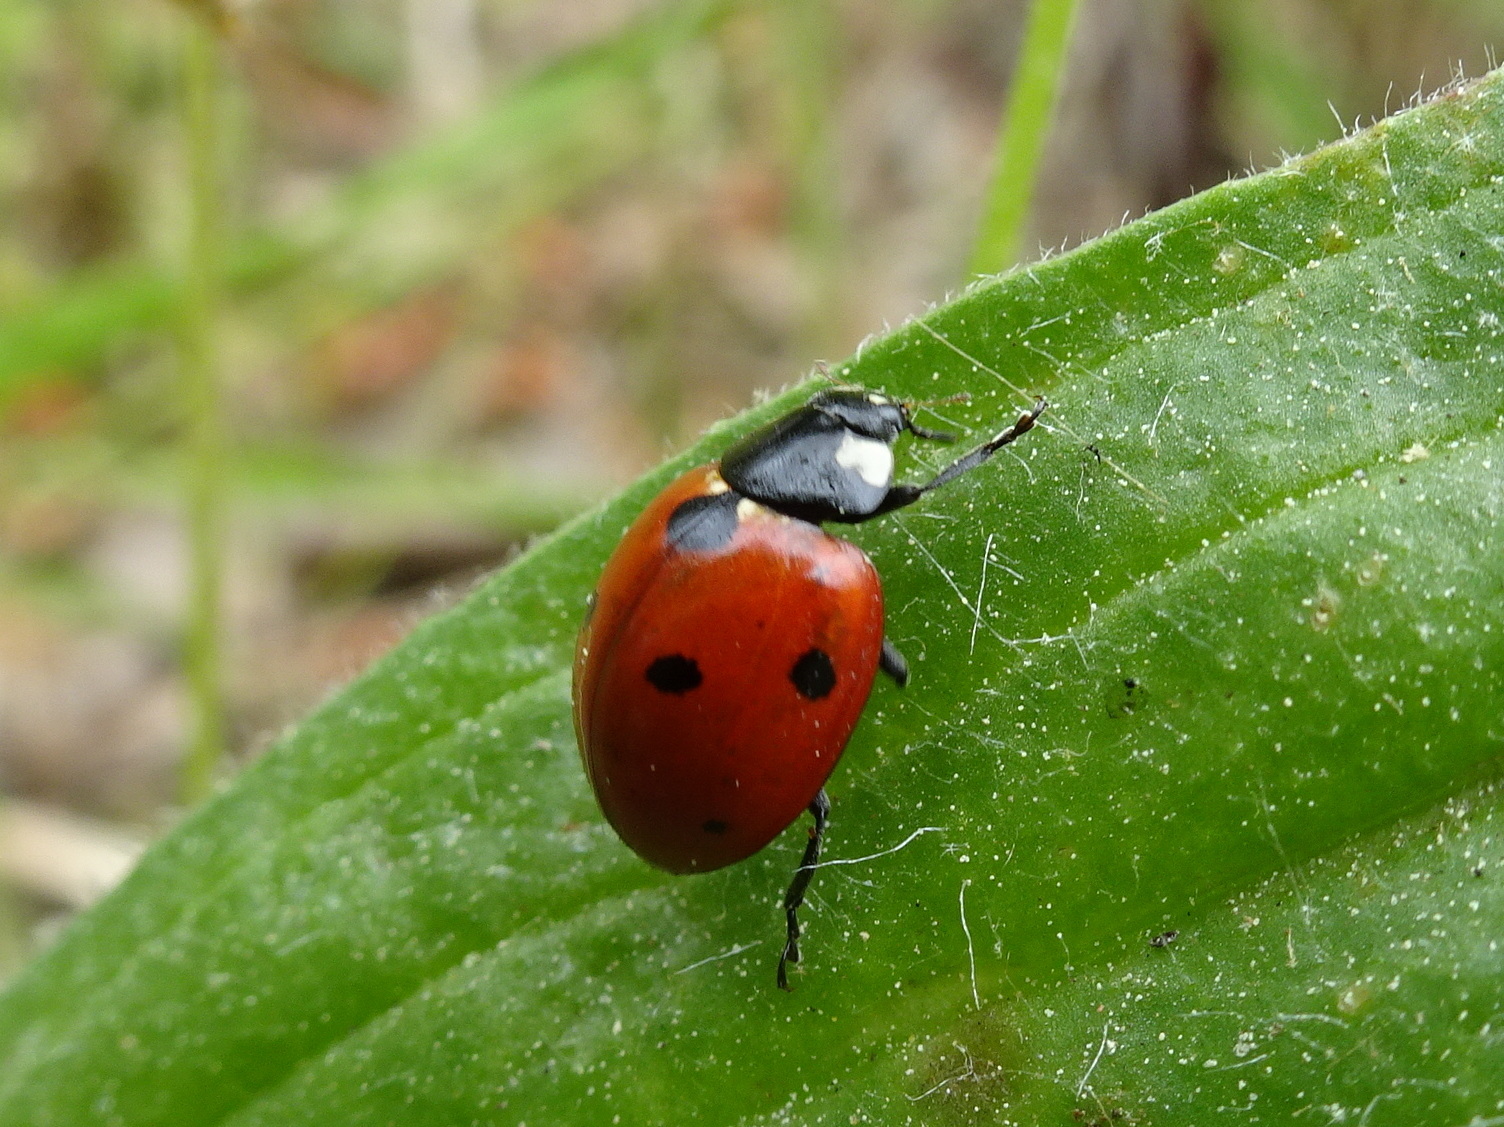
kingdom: Animalia
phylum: Arthropoda
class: Insecta
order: Coleoptera
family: Coccinellidae
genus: Coccinella
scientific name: Coccinella septempunctata
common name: Sevenspotted lady beetle
